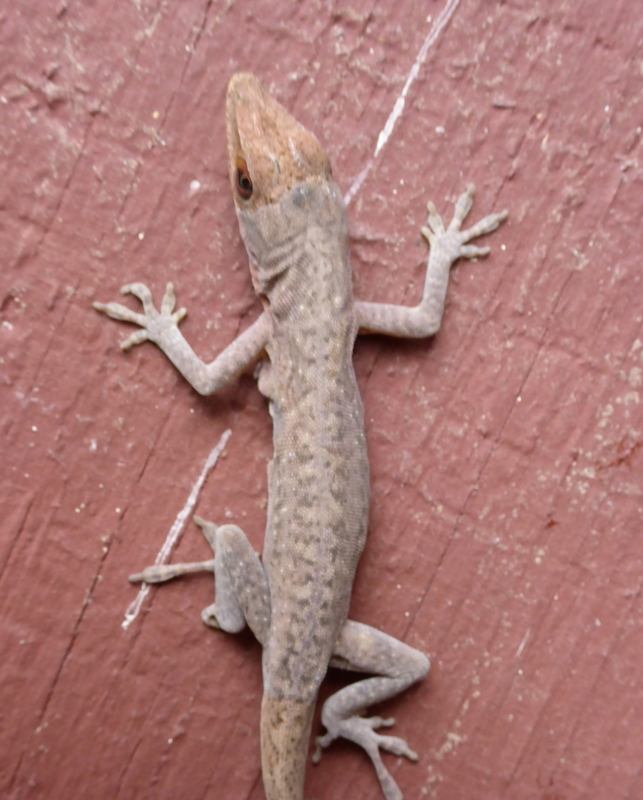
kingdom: Animalia
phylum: Chordata
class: Squamata
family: Dactyloidae
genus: Anolis
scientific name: Anolis carolinensis
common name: Green anole
